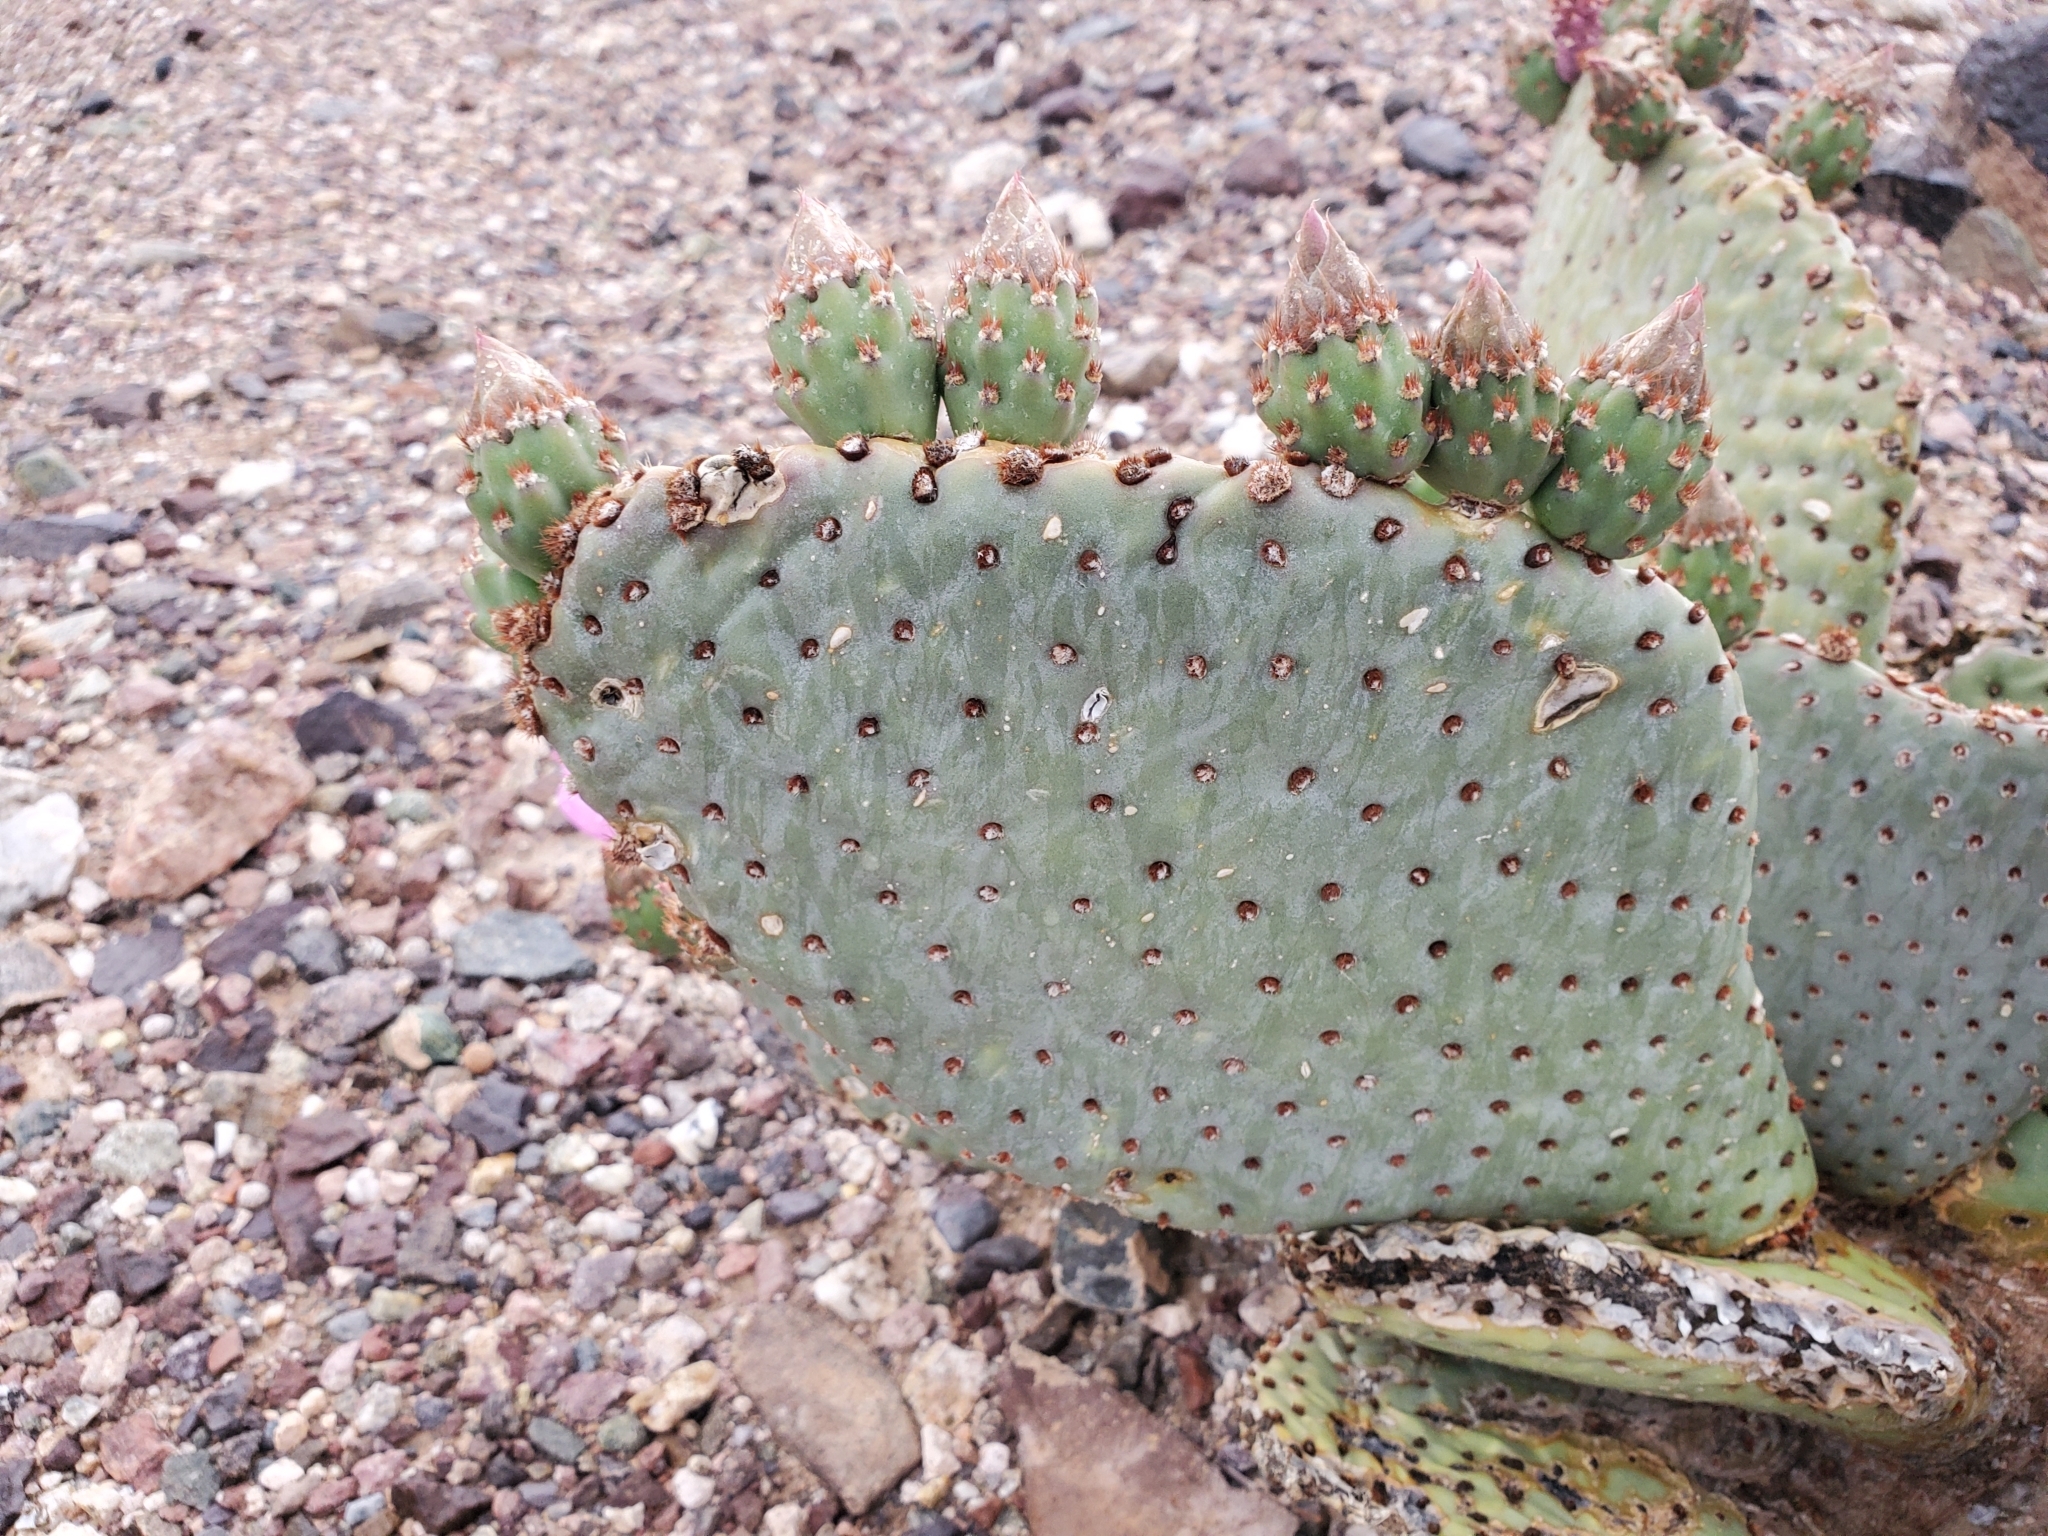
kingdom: Plantae
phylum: Tracheophyta
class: Magnoliopsida
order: Caryophyllales
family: Cactaceae
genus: Opuntia
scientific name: Opuntia basilaris
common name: Beavertail prickly-pear
